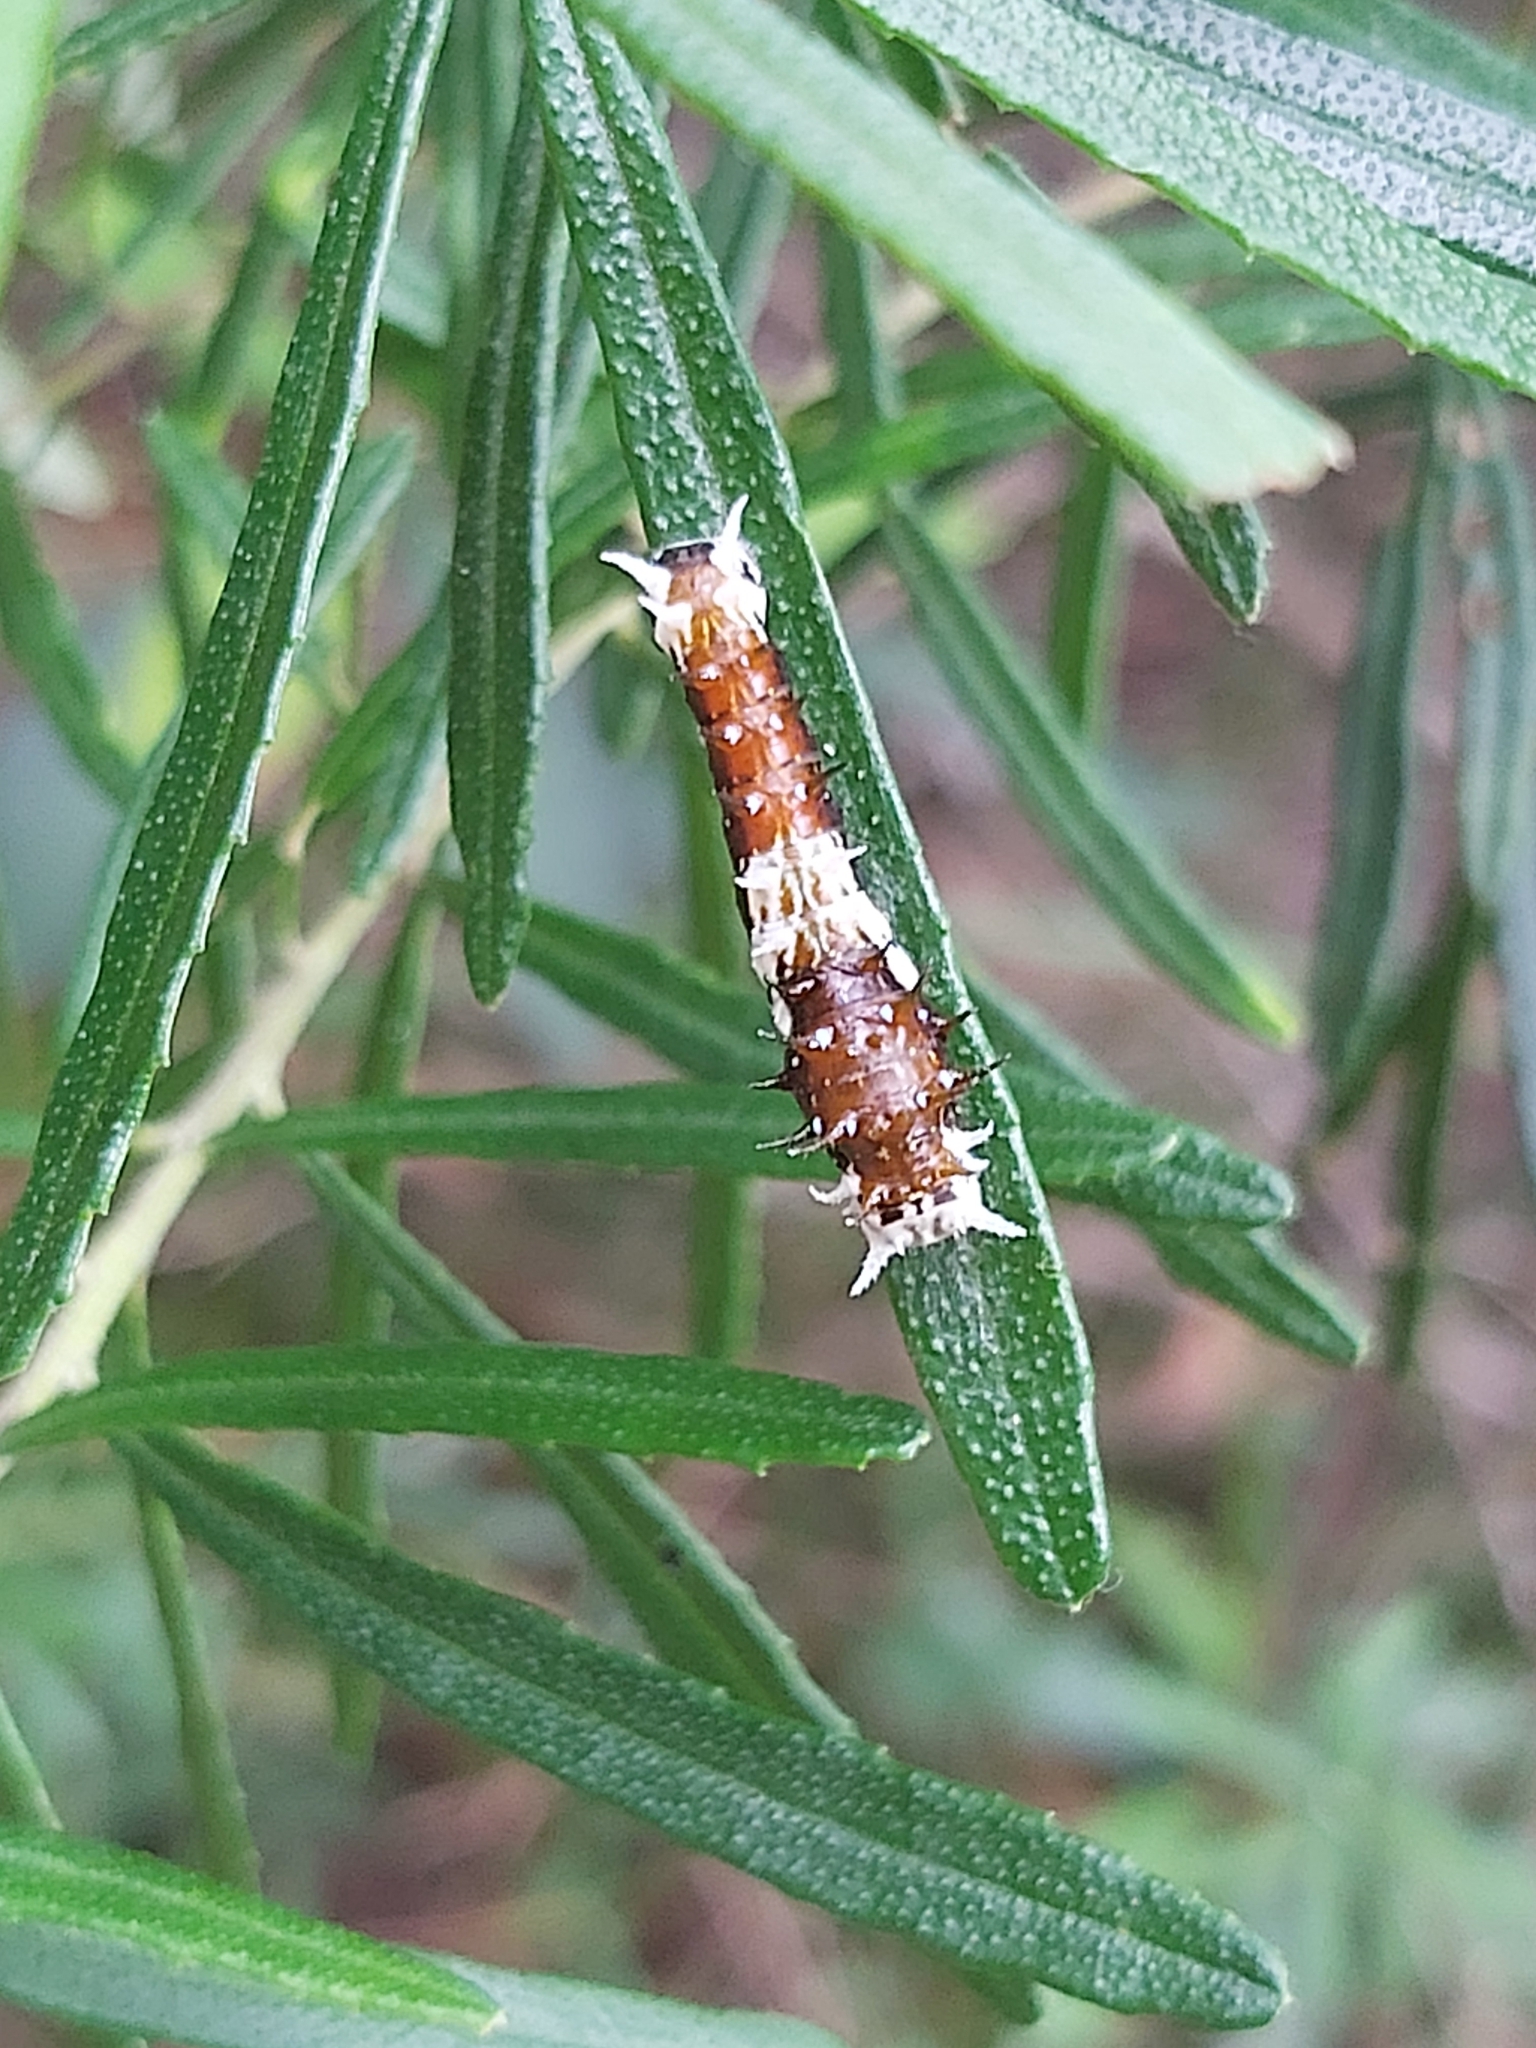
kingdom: Animalia
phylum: Arthropoda
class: Insecta
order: Lepidoptera
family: Papilionidae
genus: Papilio
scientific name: Papilio aegeus
